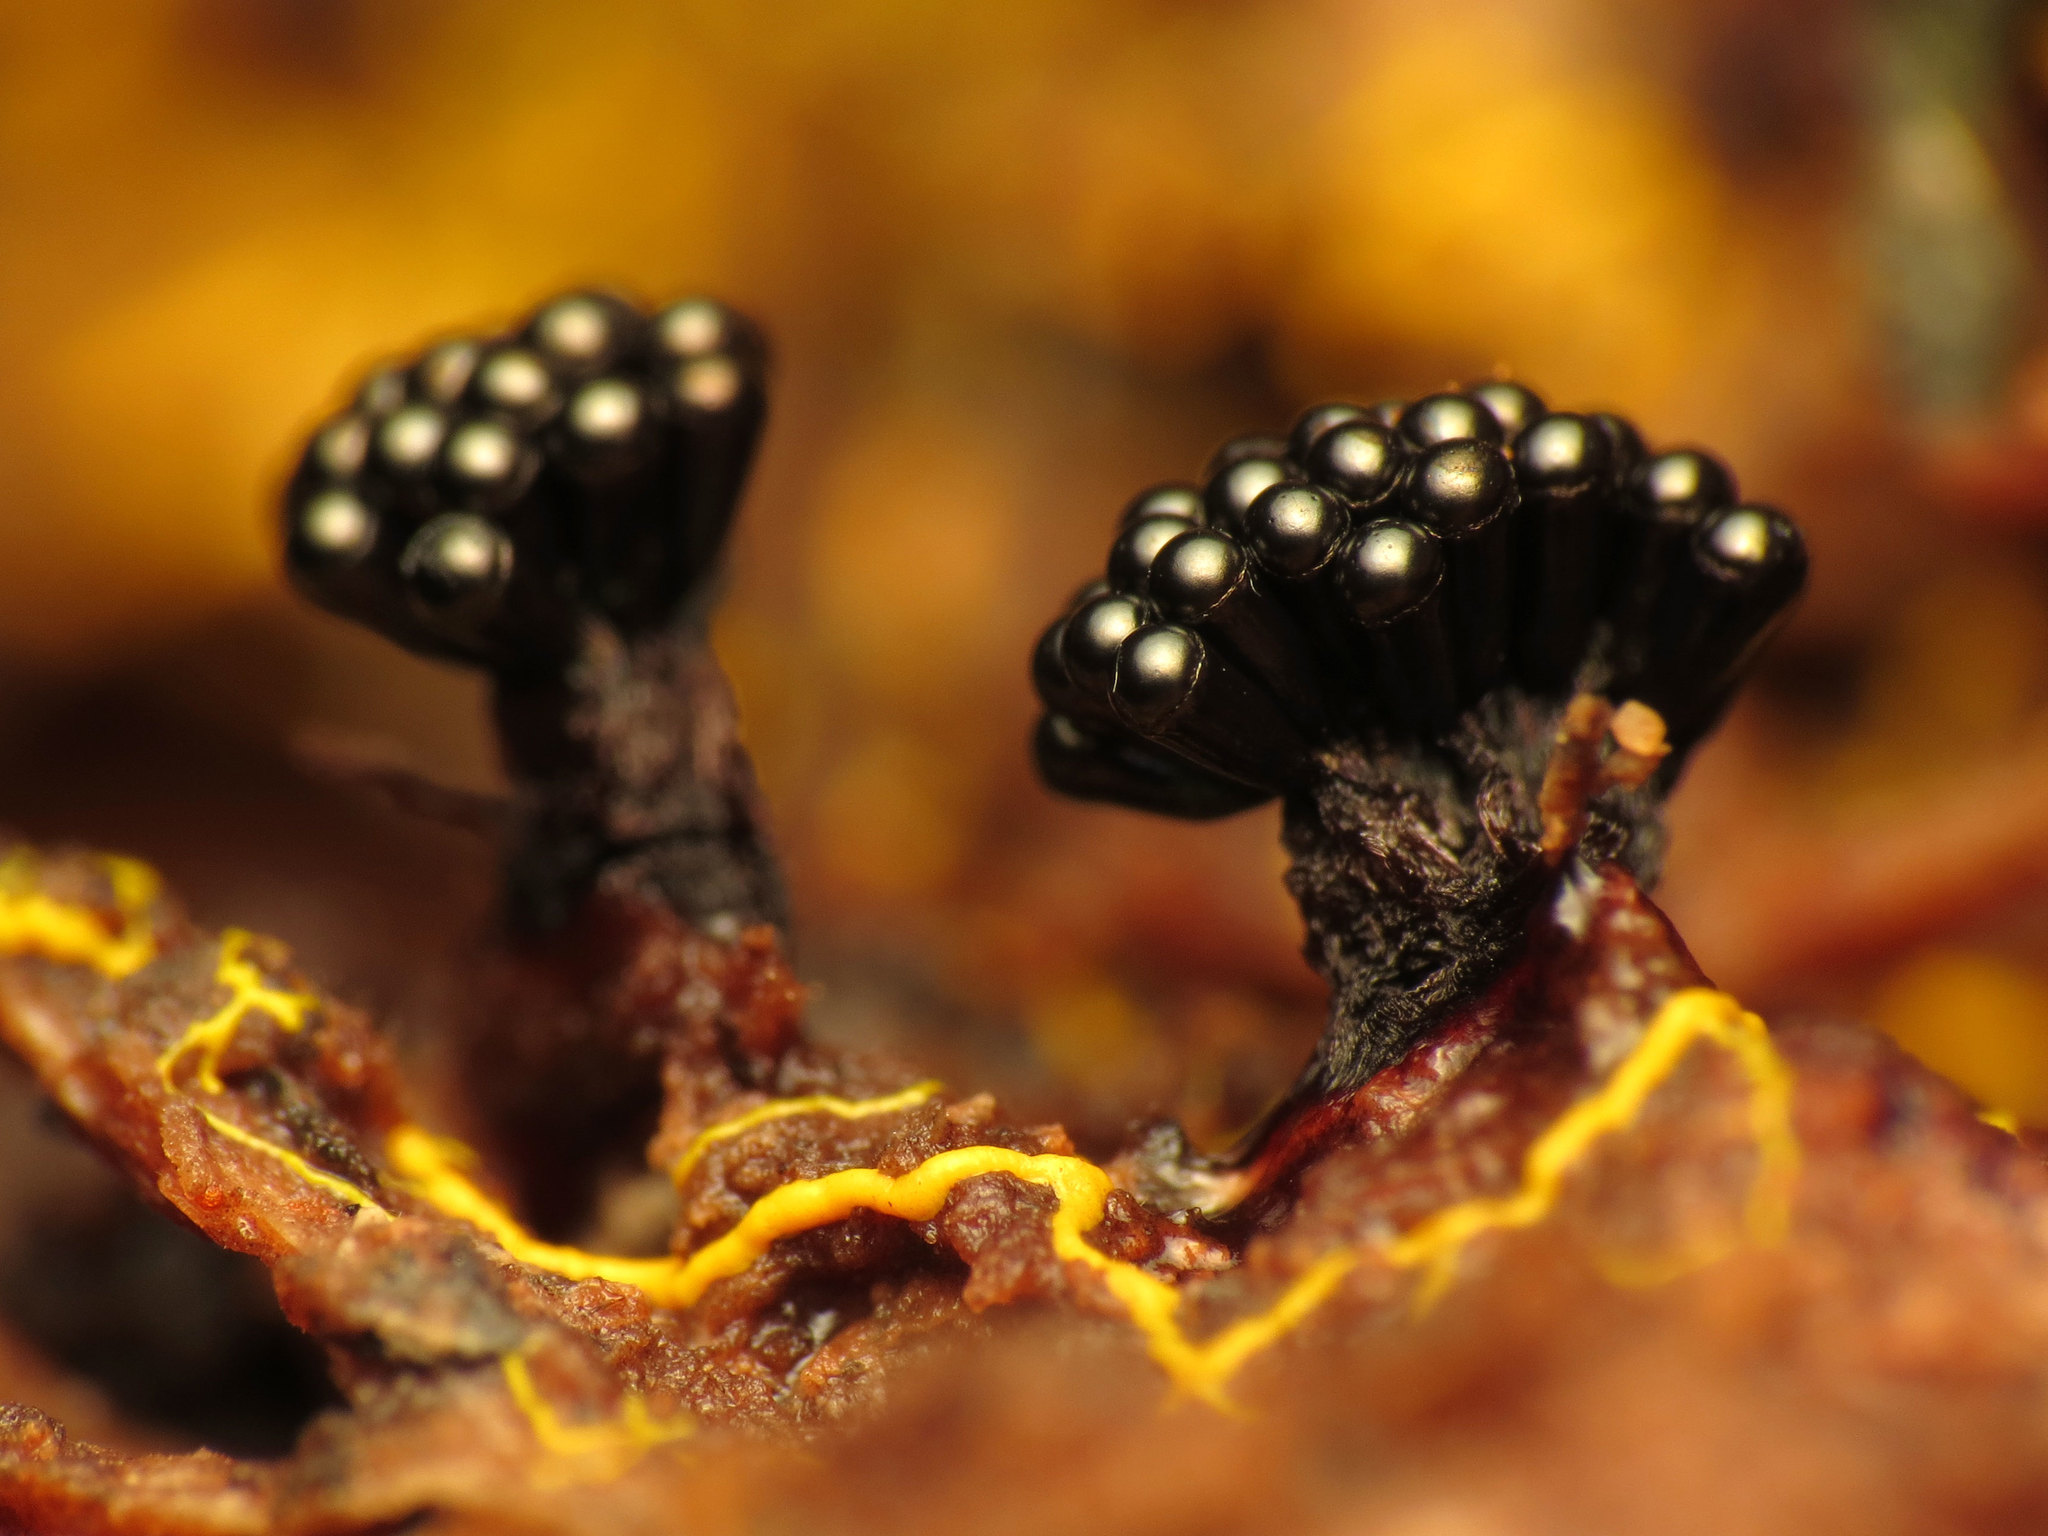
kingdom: Protozoa
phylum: Mycetozoa
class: Myxomycetes
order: Trichiales
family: Trichiaceae
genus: Metatrichia
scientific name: Metatrichia vesparia
